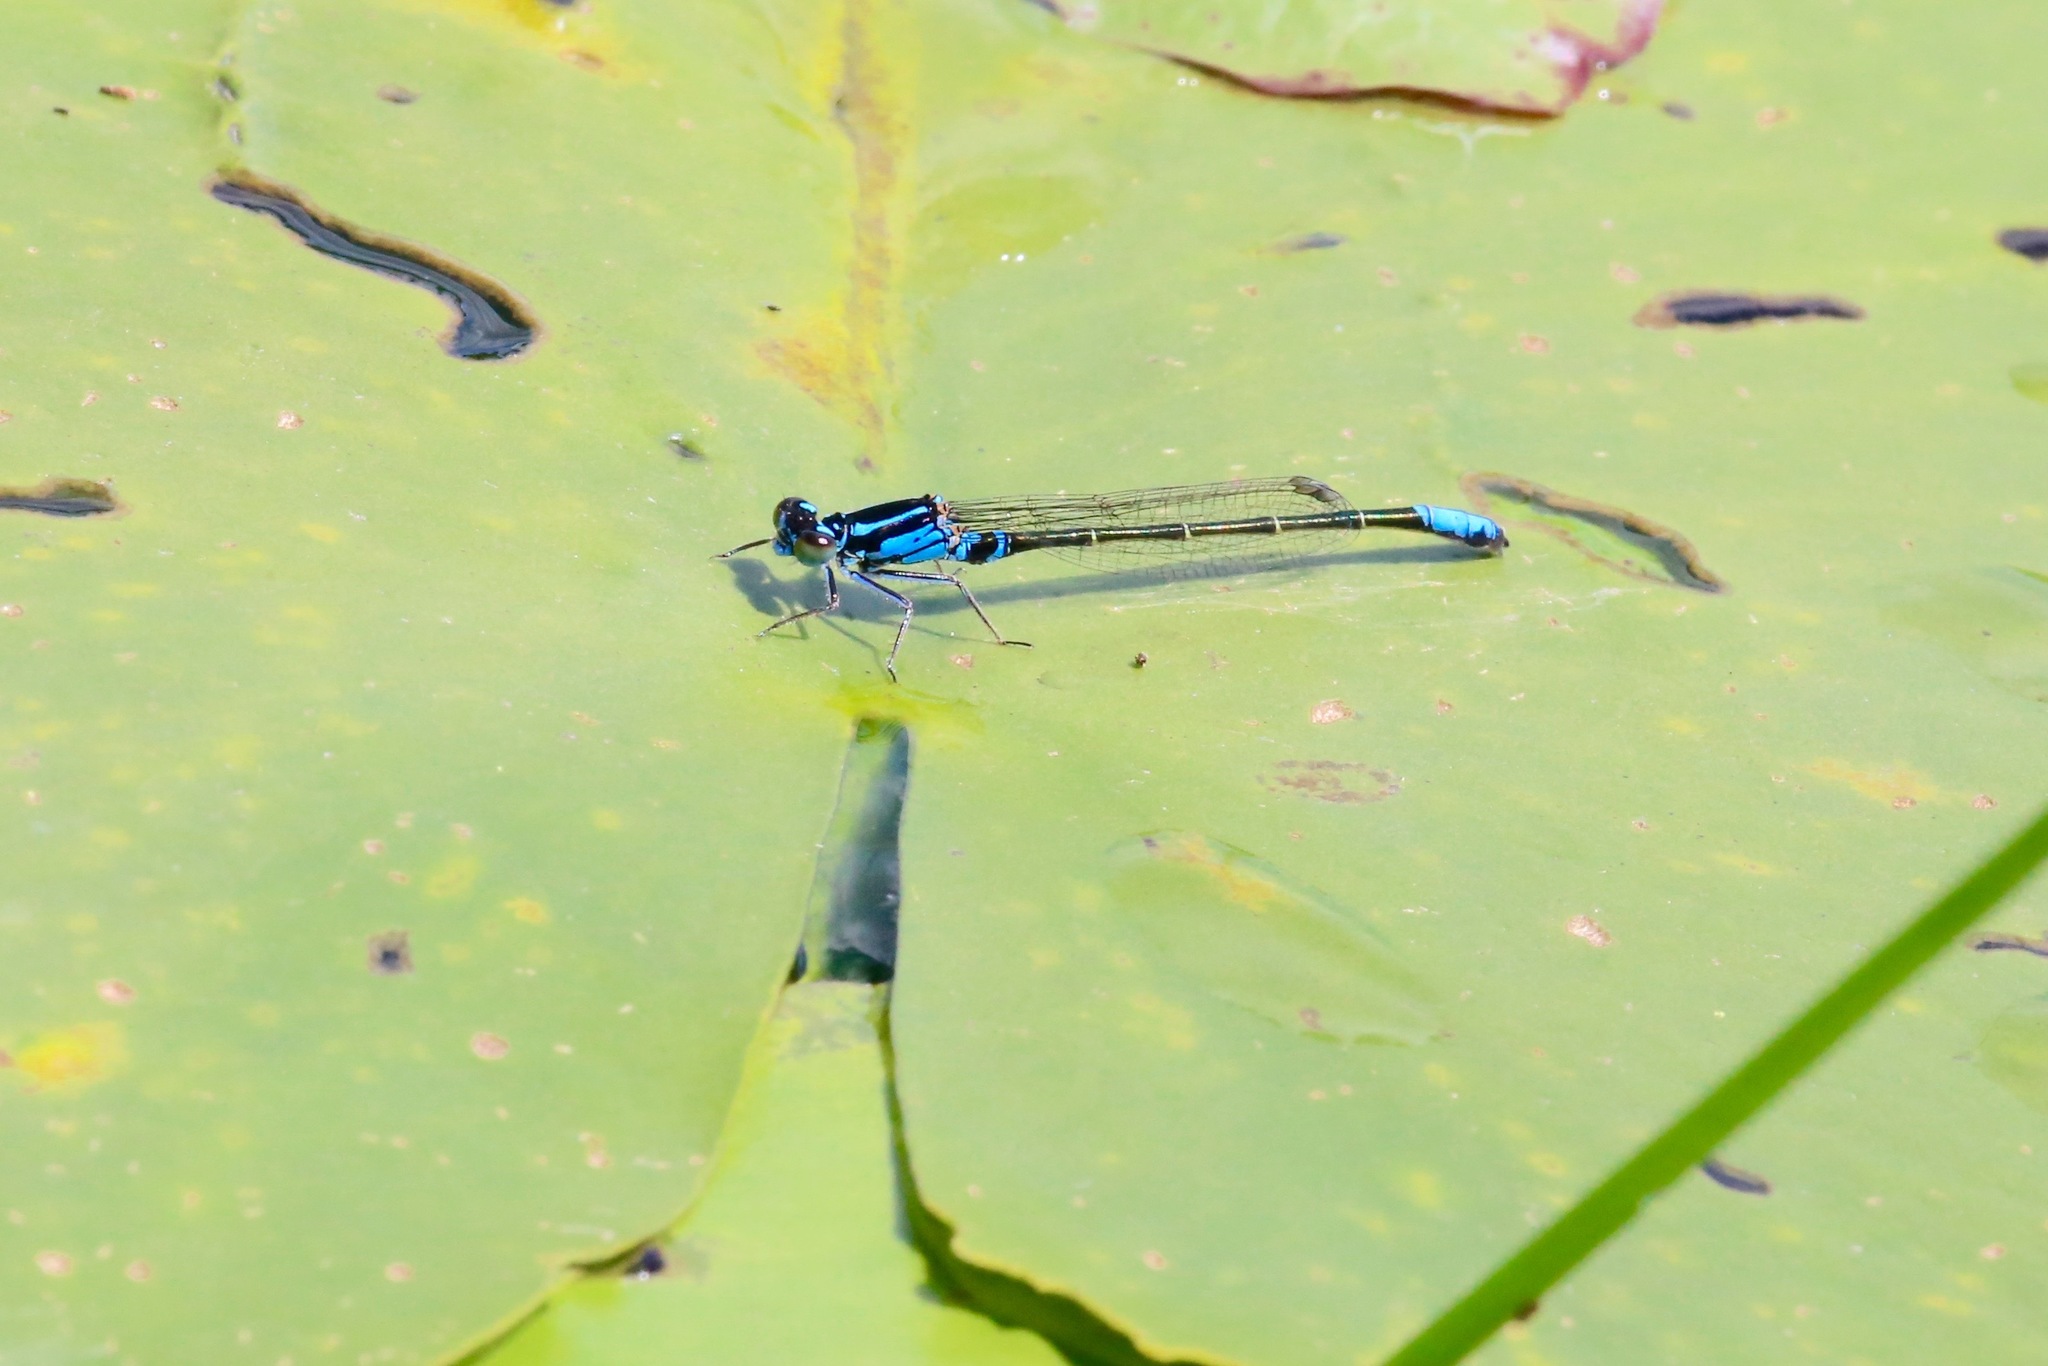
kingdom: Animalia
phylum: Arthropoda
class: Insecta
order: Odonata
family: Coenagrionidae
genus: Ischnura
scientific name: Ischnura kellicotti
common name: Lilypad forktail
